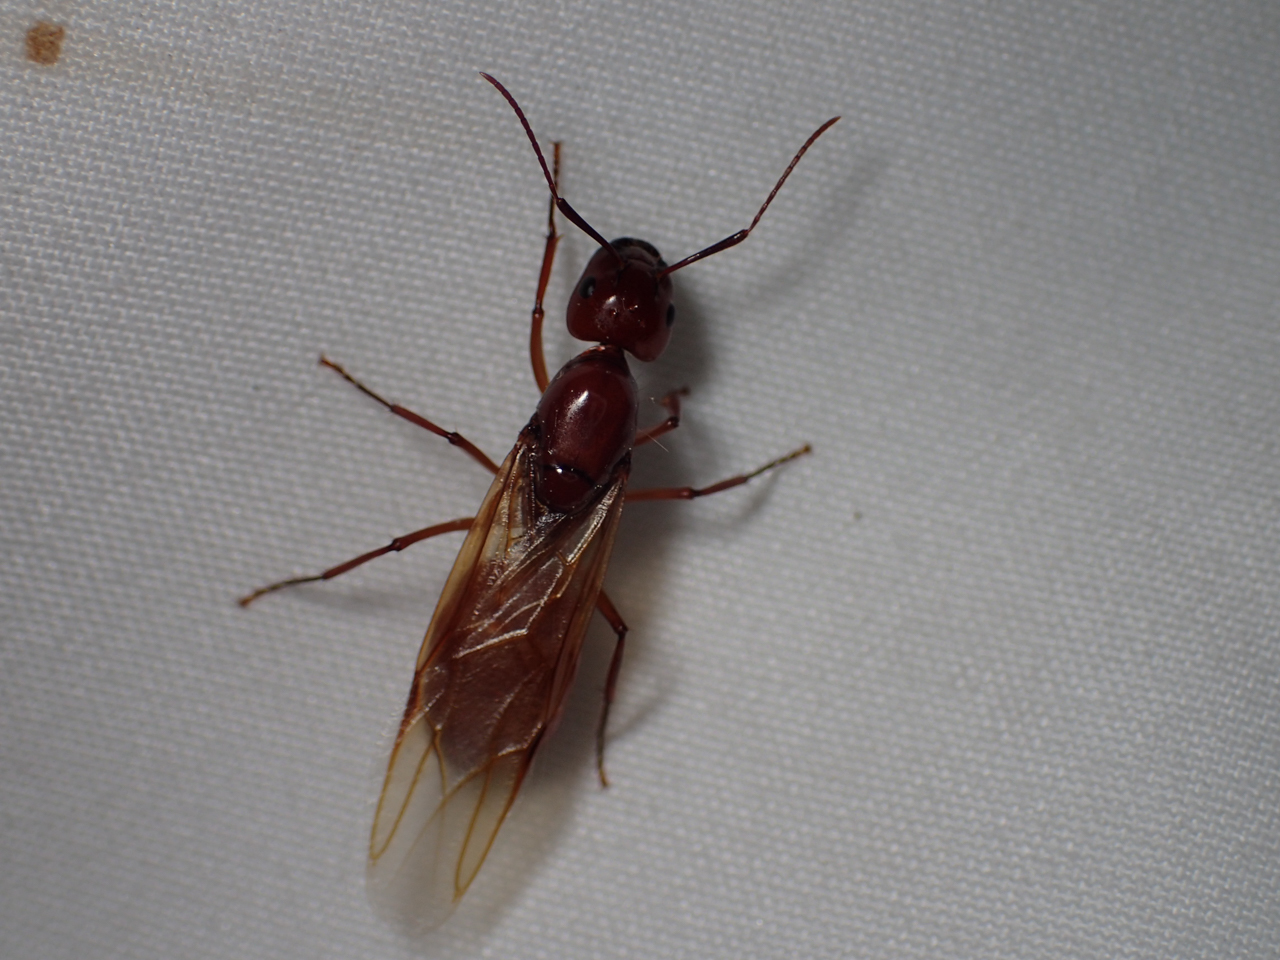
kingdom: Animalia
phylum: Arthropoda
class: Insecta
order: Hymenoptera
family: Formicidae
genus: Camponotus
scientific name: Camponotus castaneus
